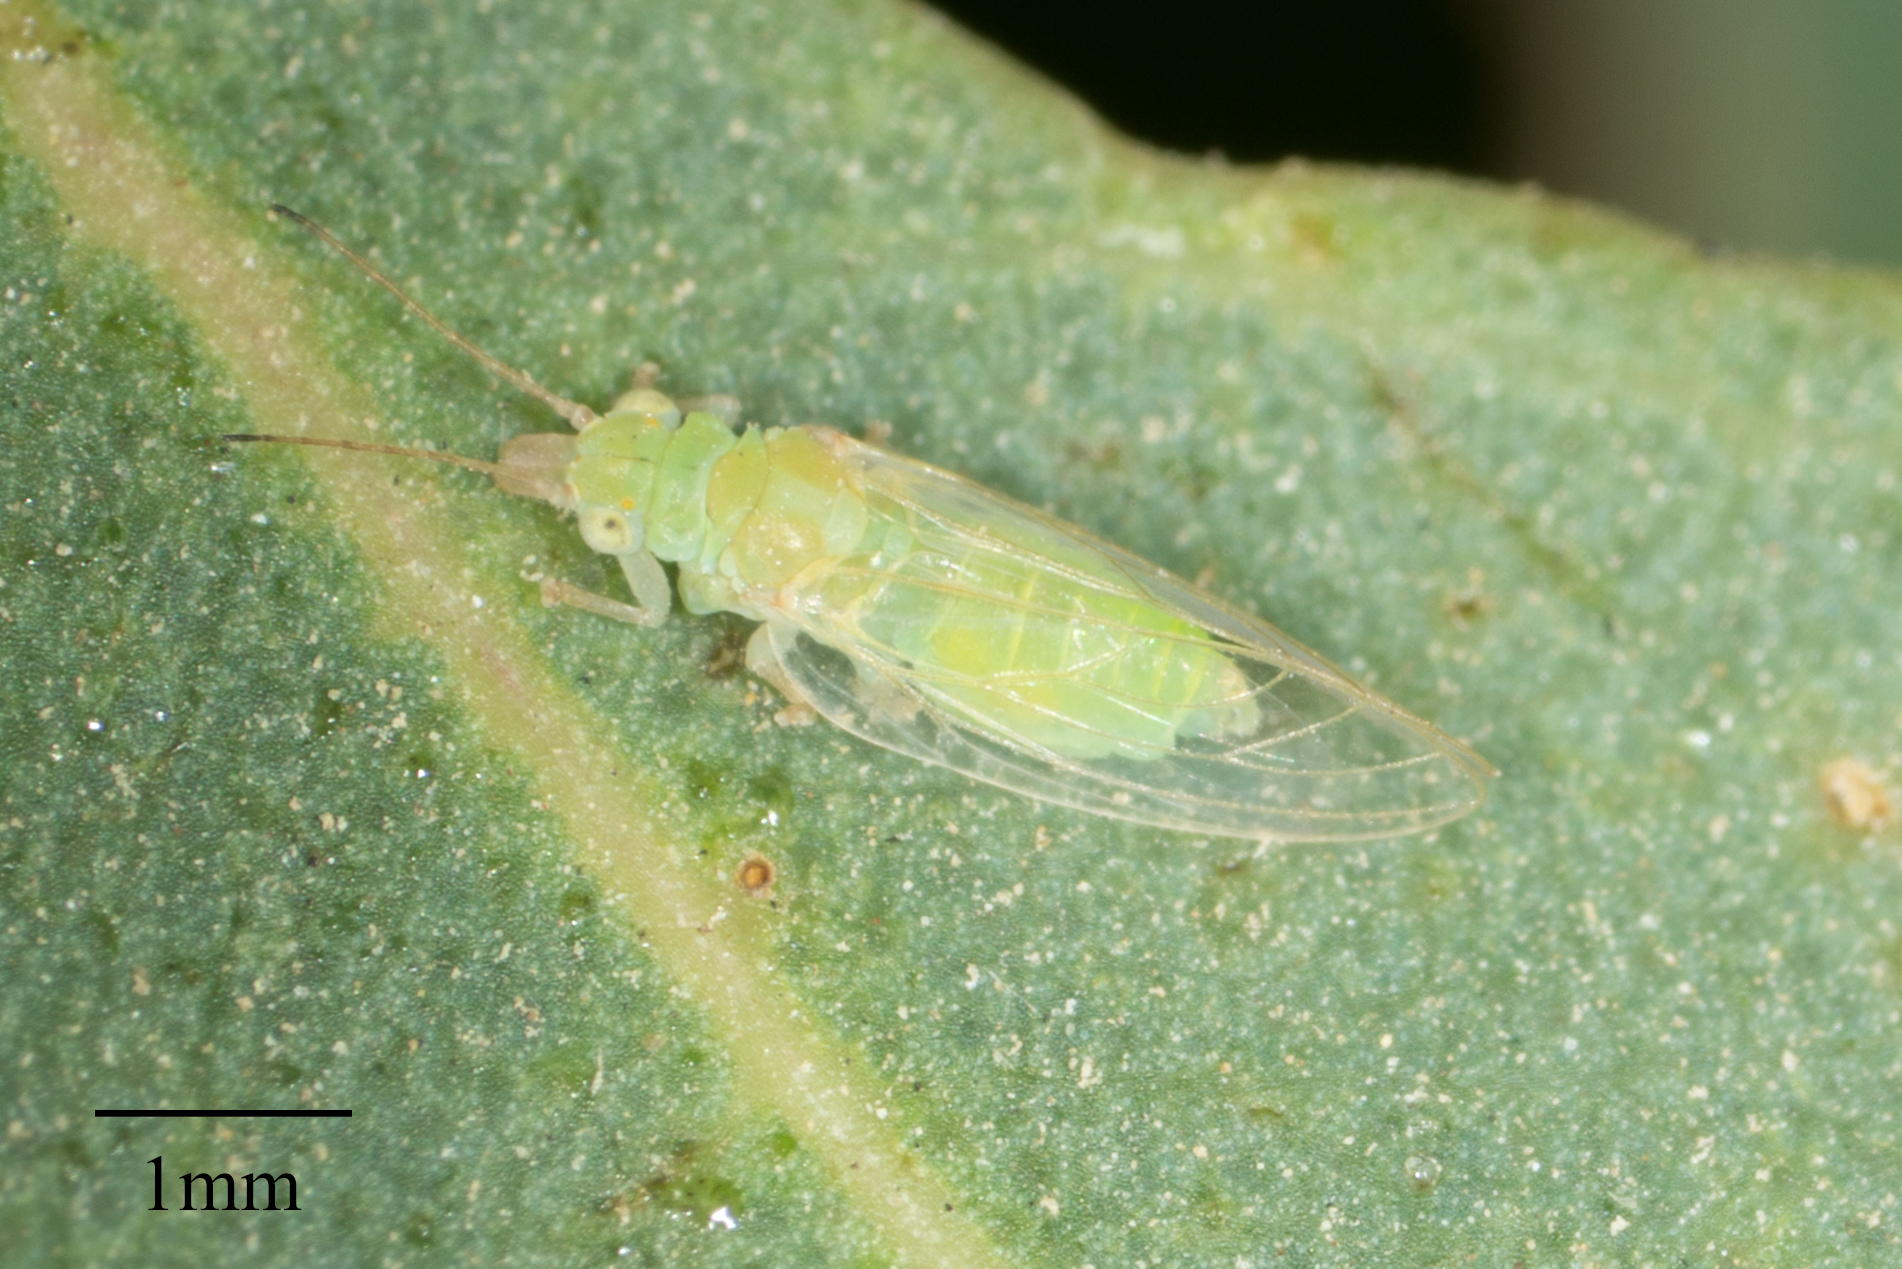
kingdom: Animalia
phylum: Arthropoda
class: Insecta
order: Hemiptera
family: Aphalaridae
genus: Glycaspis
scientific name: Glycaspis brimblecombei
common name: Red gum lerp psyllid
